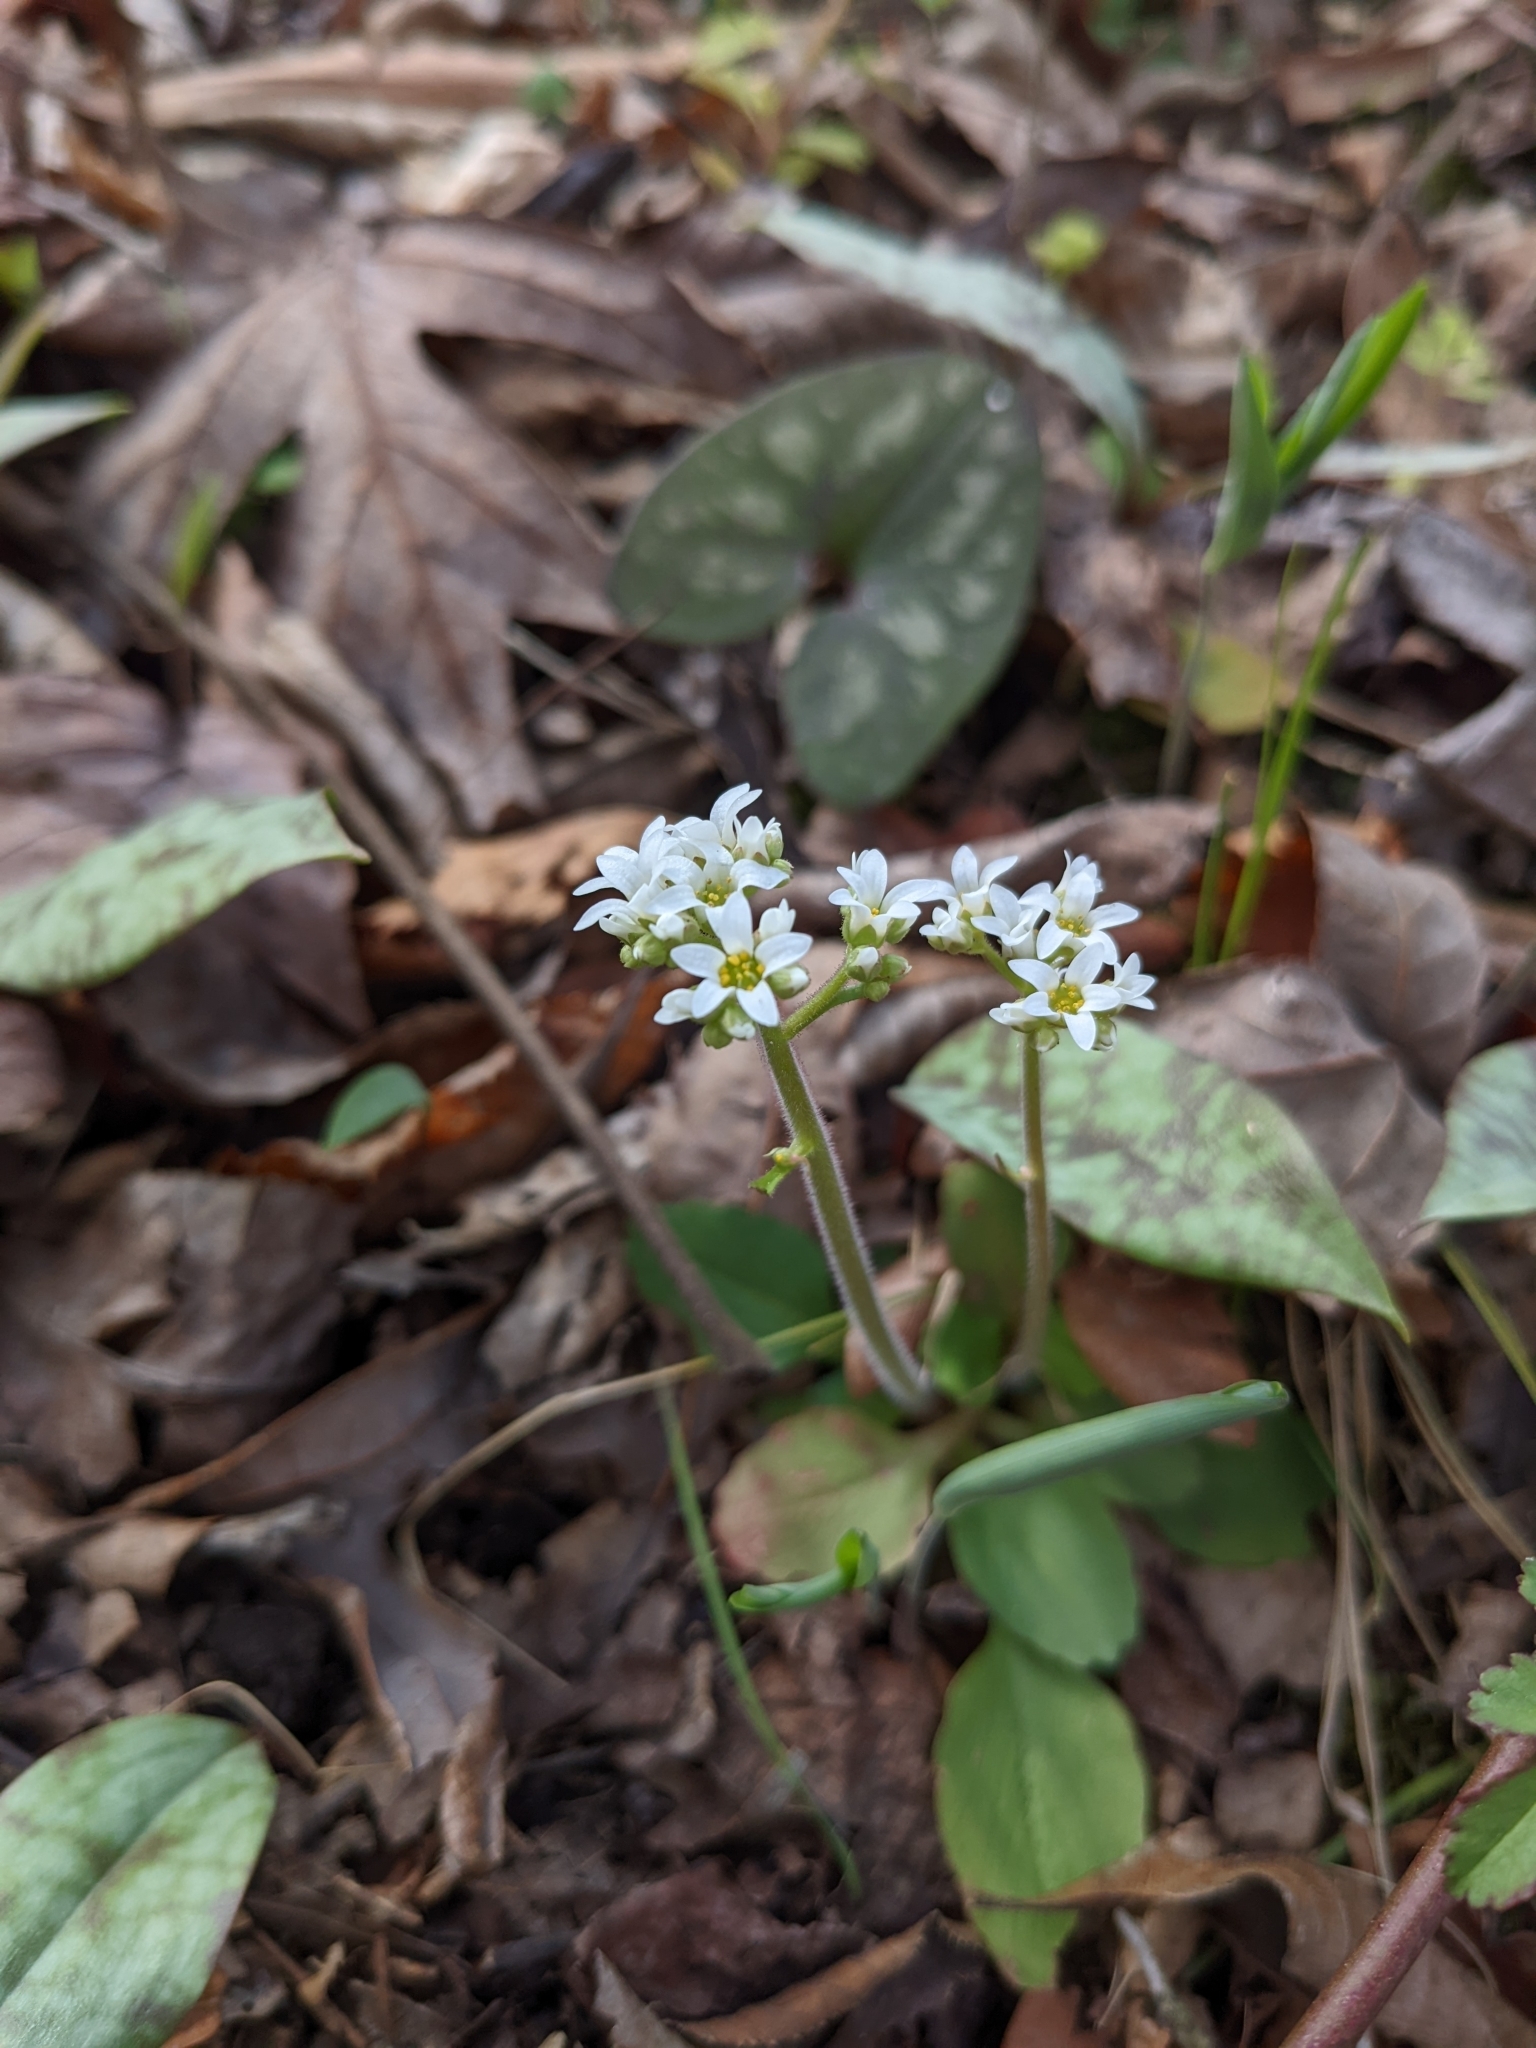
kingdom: Plantae
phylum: Tracheophyta
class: Magnoliopsida
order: Saxifragales
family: Saxifragaceae
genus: Micranthes
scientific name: Micranthes virginiensis
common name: Early saxifrage
